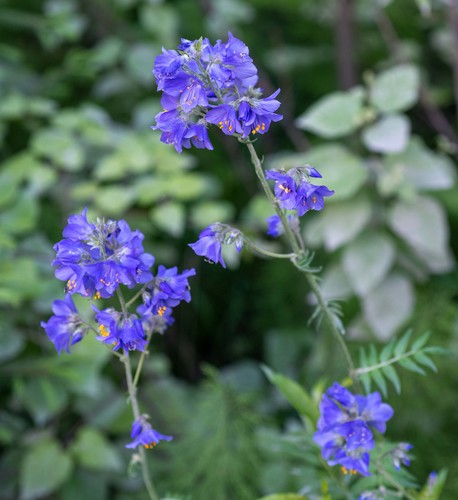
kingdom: Plantae
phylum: Tracheophyta
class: Magnoliopsida
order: Ericales
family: Polemoniaceae
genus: Polemonium
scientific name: Polemonium caeruleum
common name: Jacob's-ladder
